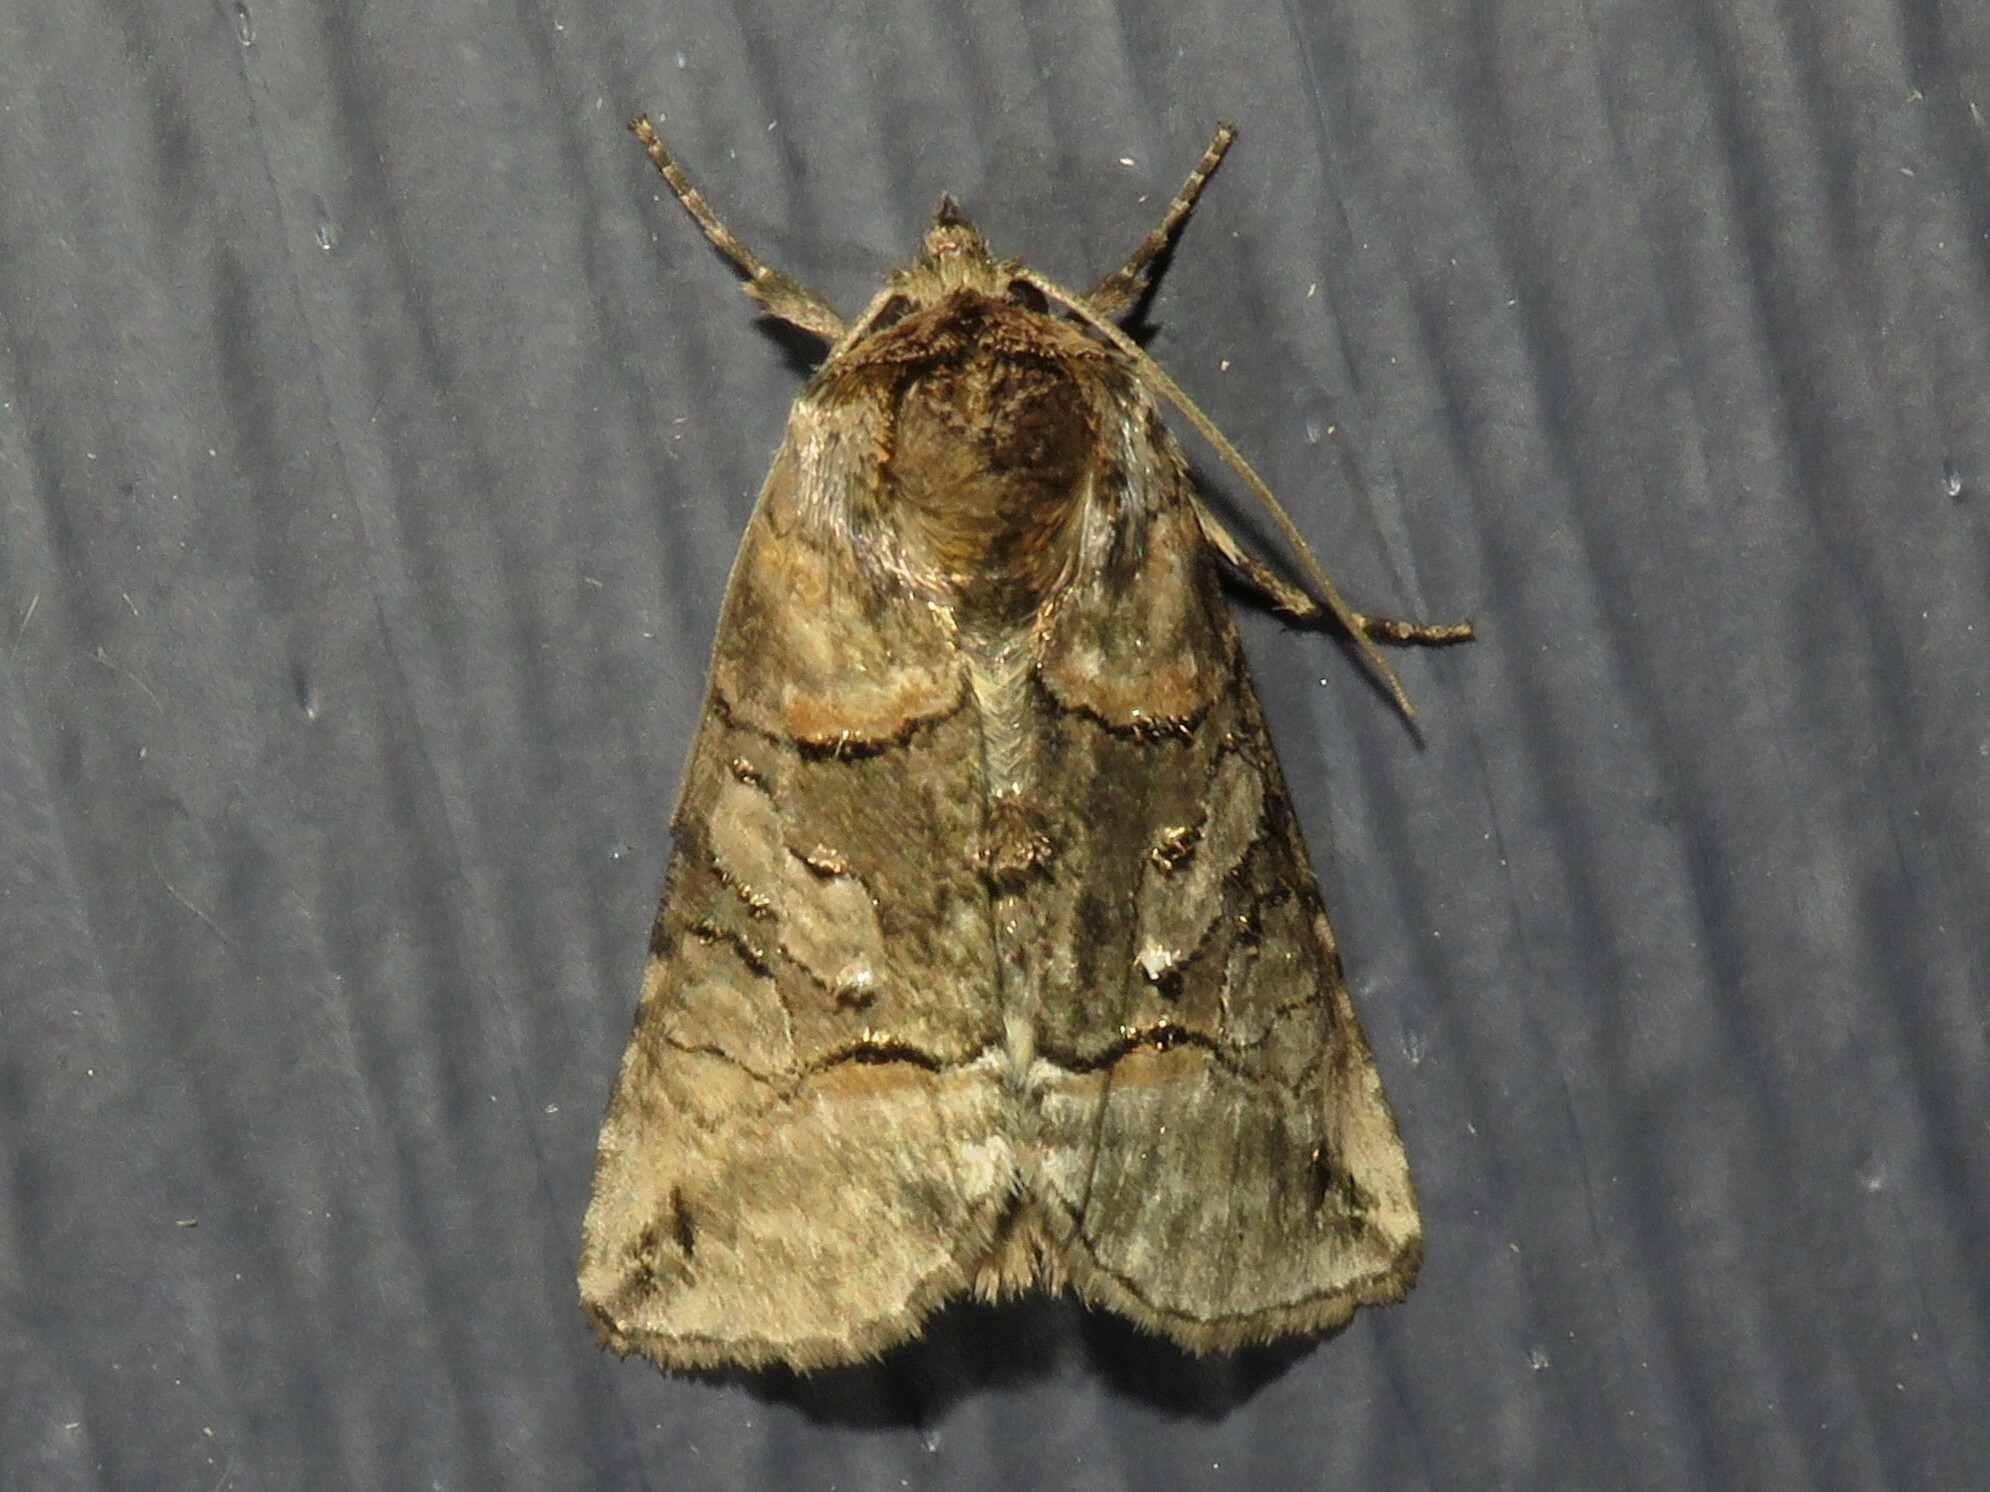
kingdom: Animalia
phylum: Arthropoda
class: Insecta
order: Lepidoptera
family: Noctuidae
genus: Abrostola
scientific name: Abrostola urentis
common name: Spectacled nettle moth
